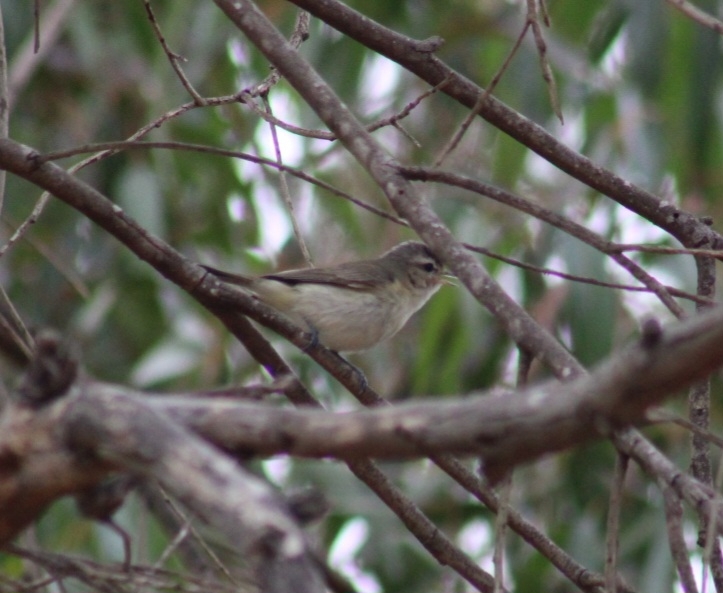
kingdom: Animalia
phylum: Chordata
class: Aves
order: Passeriformes
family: Vireonidae
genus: Vireo
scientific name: Vireo gilvus
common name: Warbling vireo
